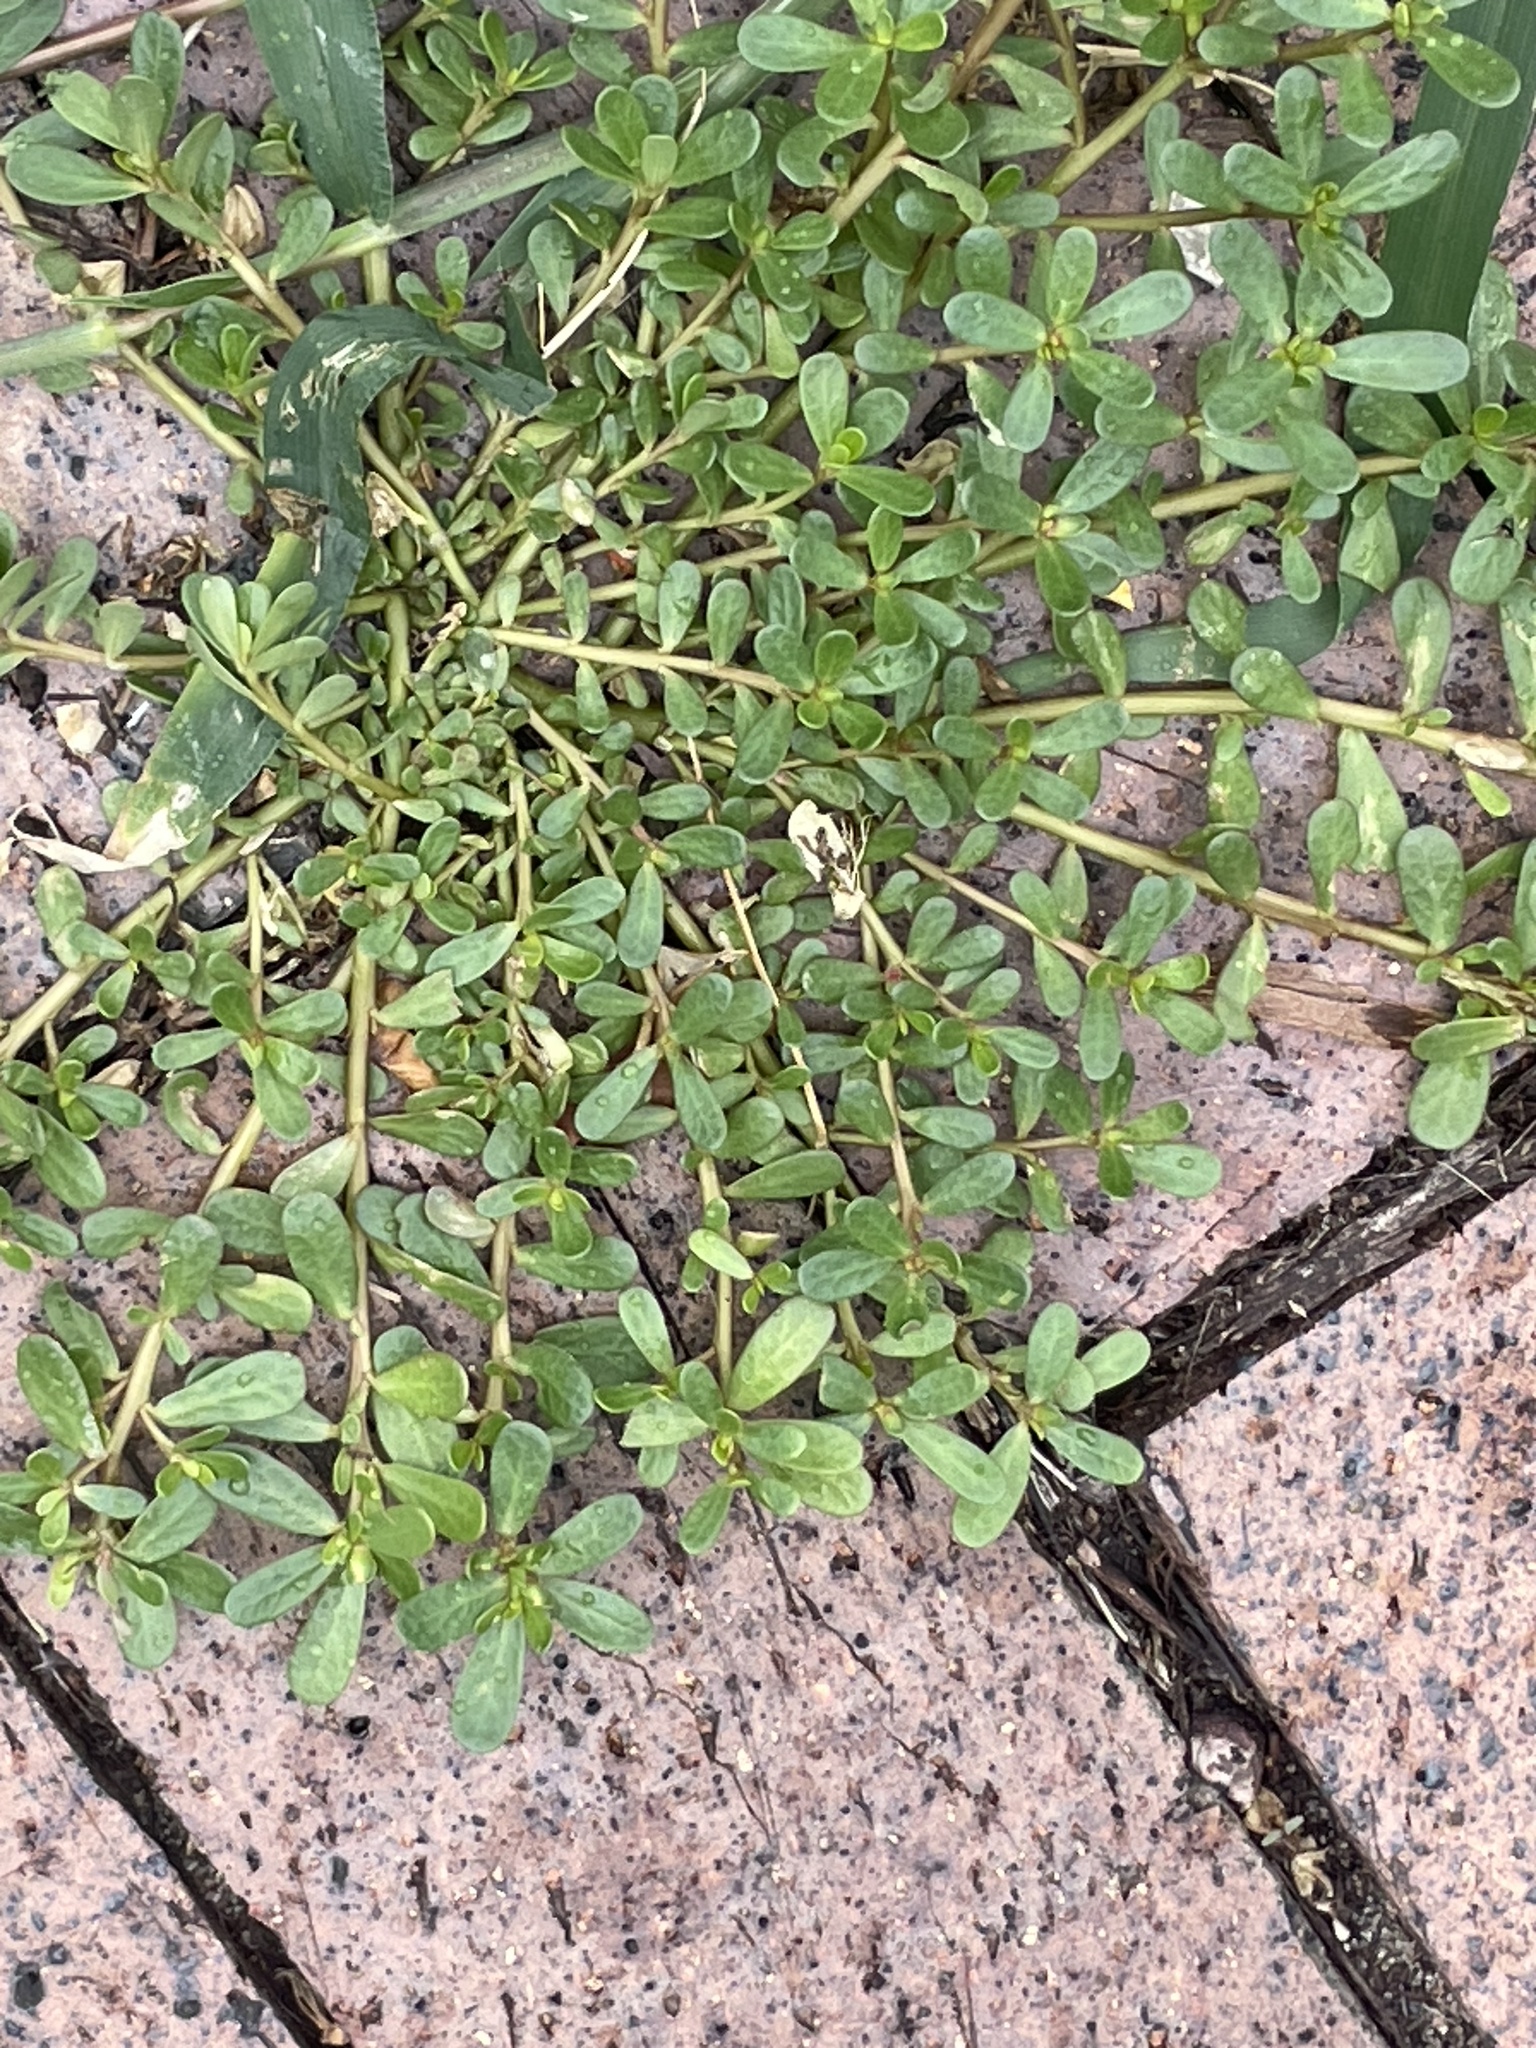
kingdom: Plantae
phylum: Tracheophyta
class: Magnoliopsida
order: Caryophyllales
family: Portulacaceae
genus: Portulaca
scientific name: Portulaca oleracea
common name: Common purslane
